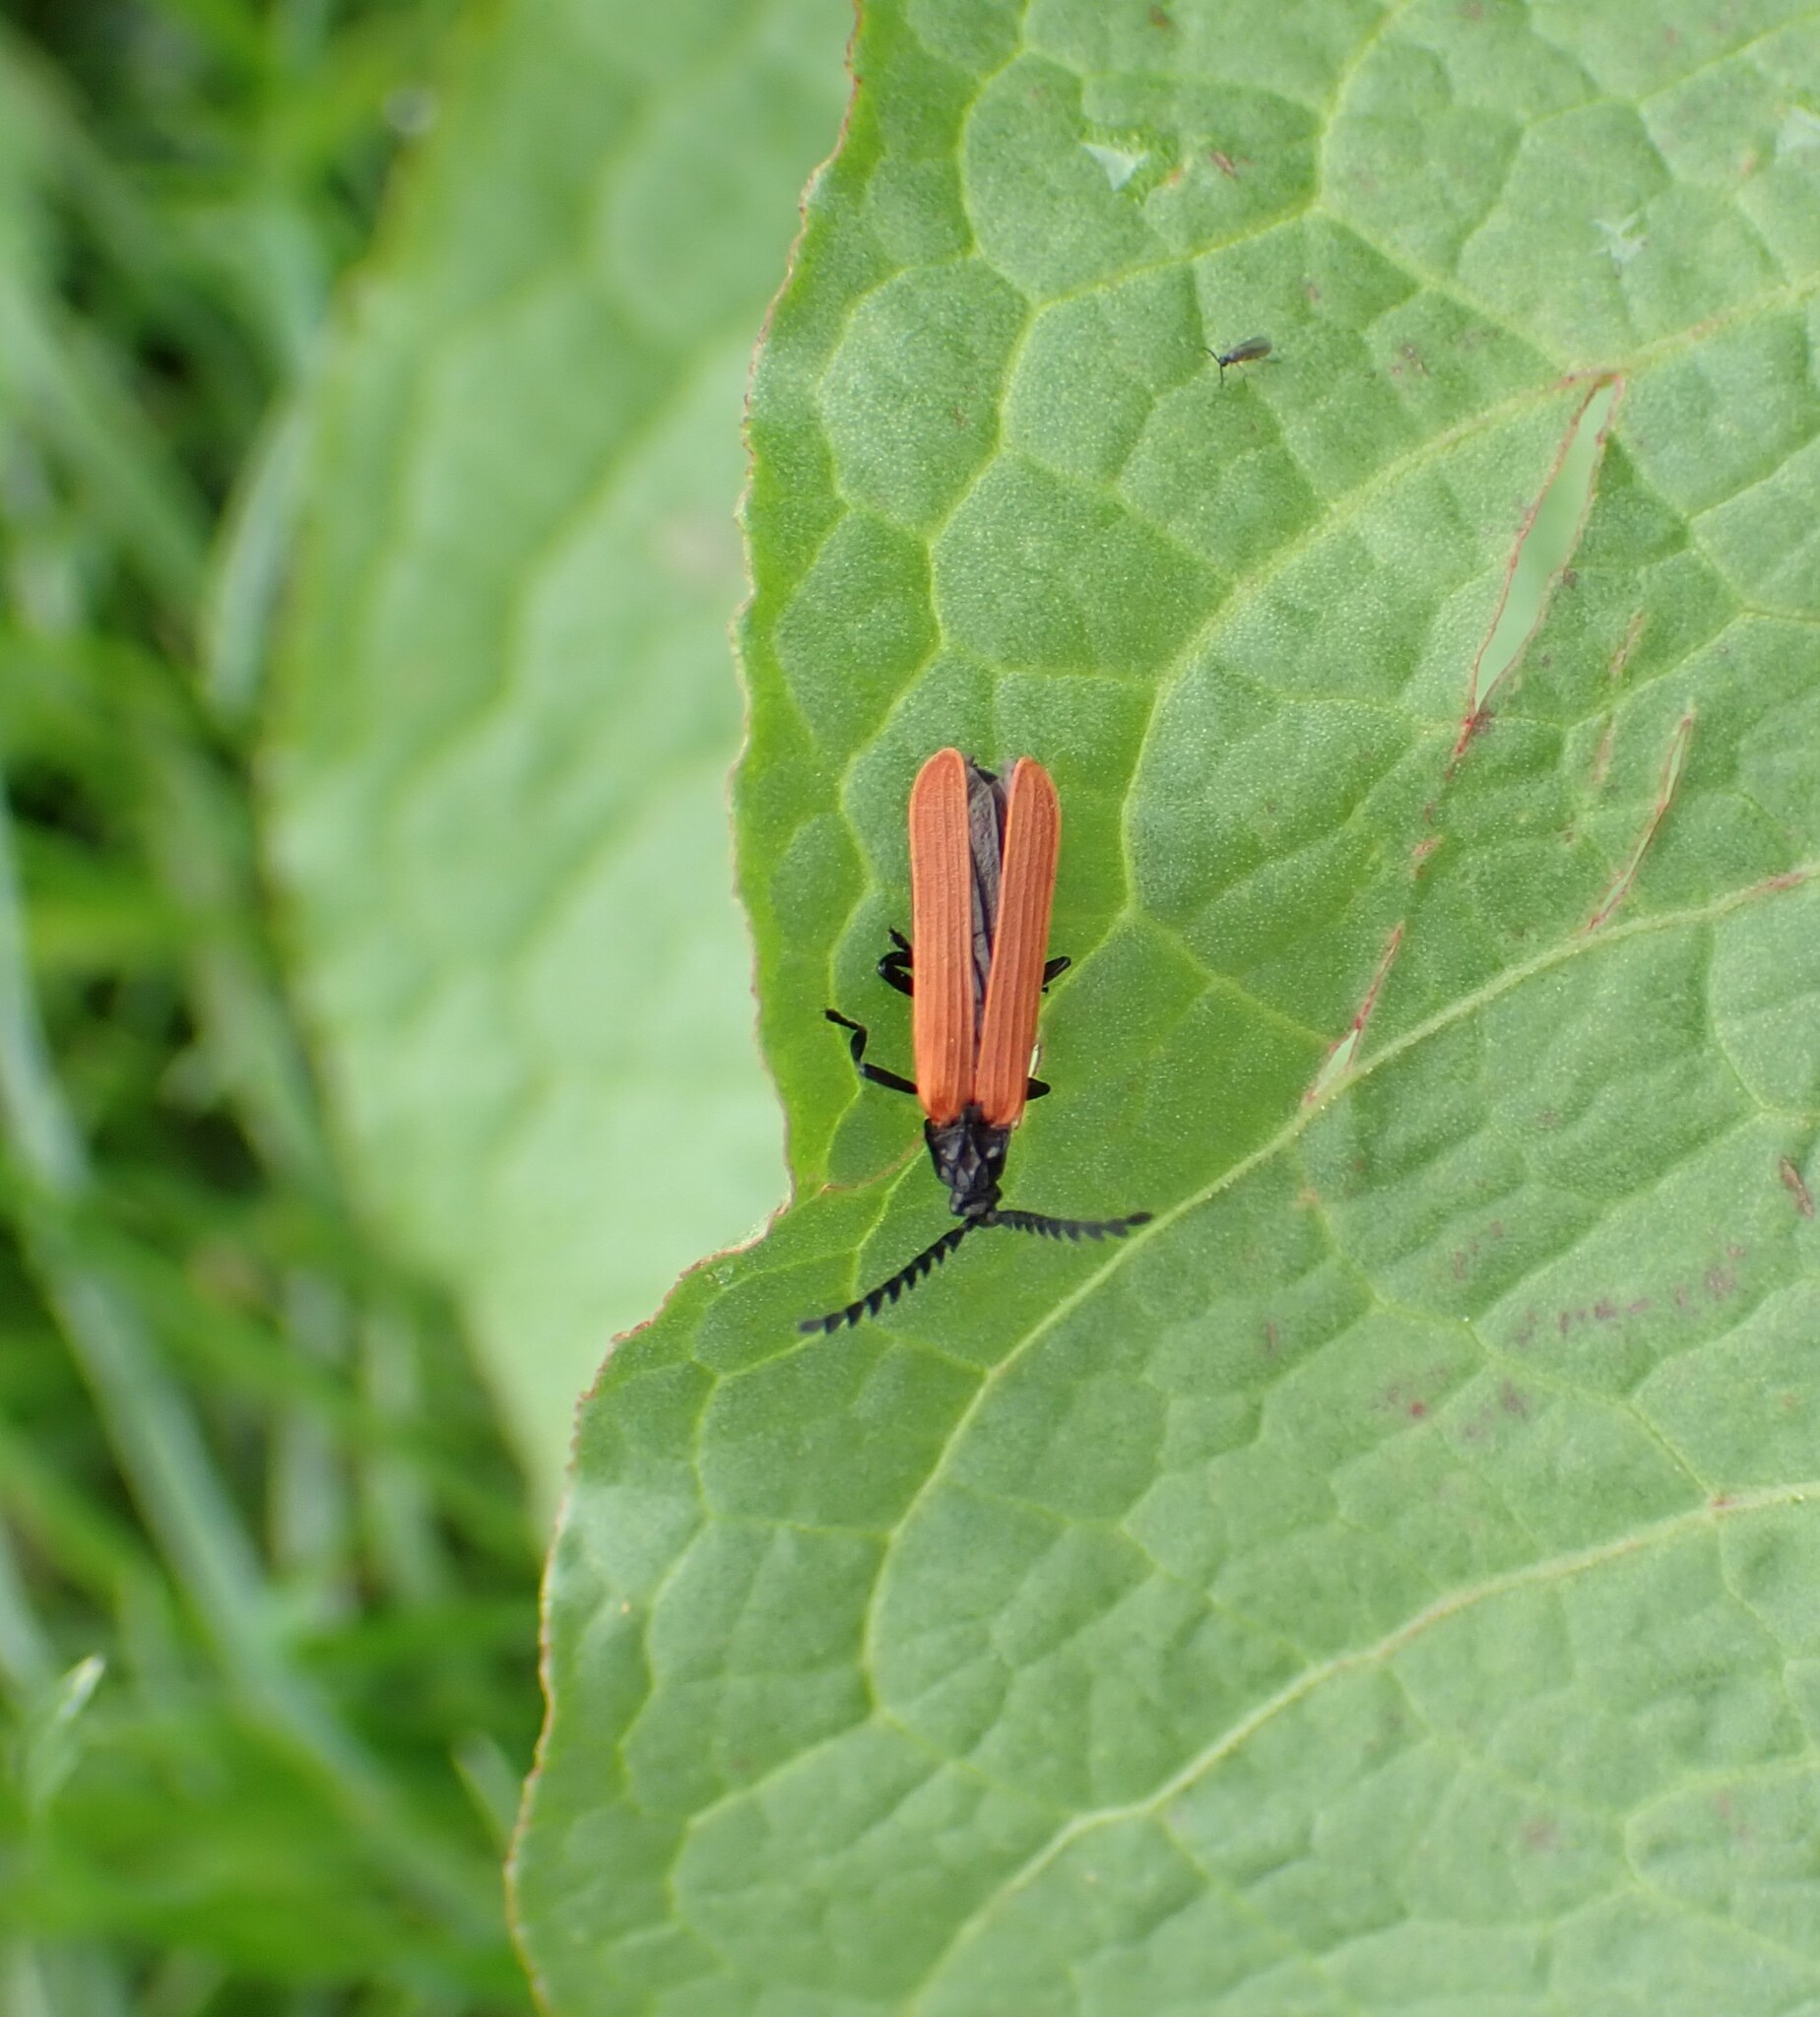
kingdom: Animalia
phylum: Arthropoda
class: Insecta
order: Coleoptera
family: Lycidae
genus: Porrostoma
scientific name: Porrostoma rufipenne
